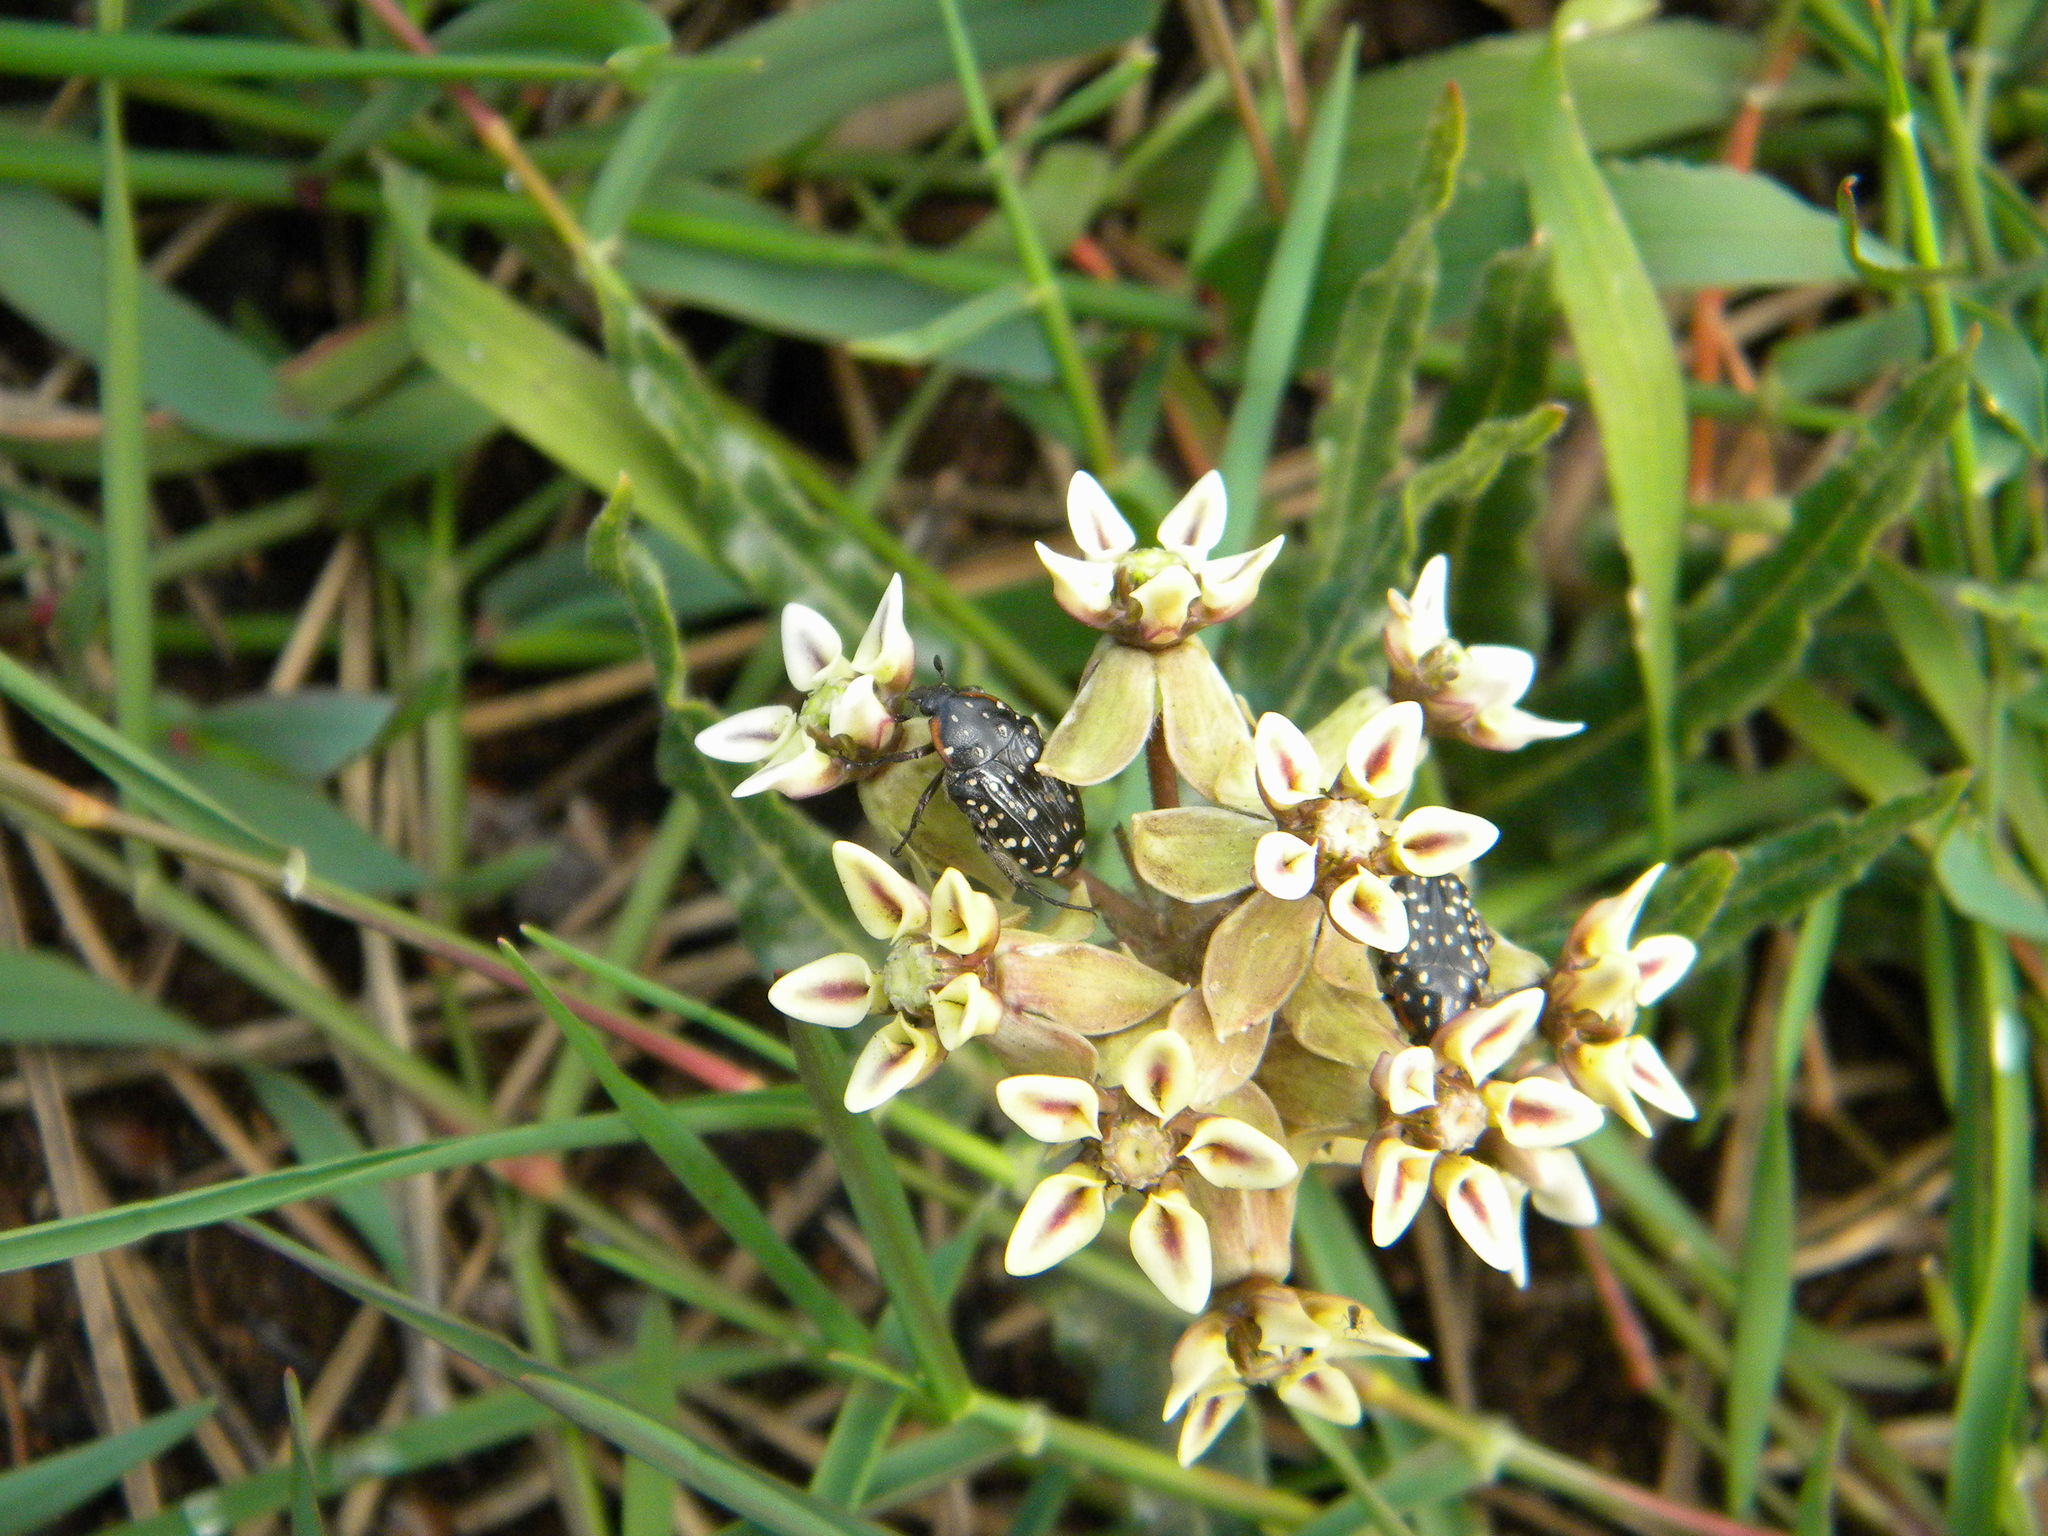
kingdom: Plantae
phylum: Tracheophyta
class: Magnoliopsida
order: Gentianales
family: Apocynaceae
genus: Asclepias
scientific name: Asclepias crispa
